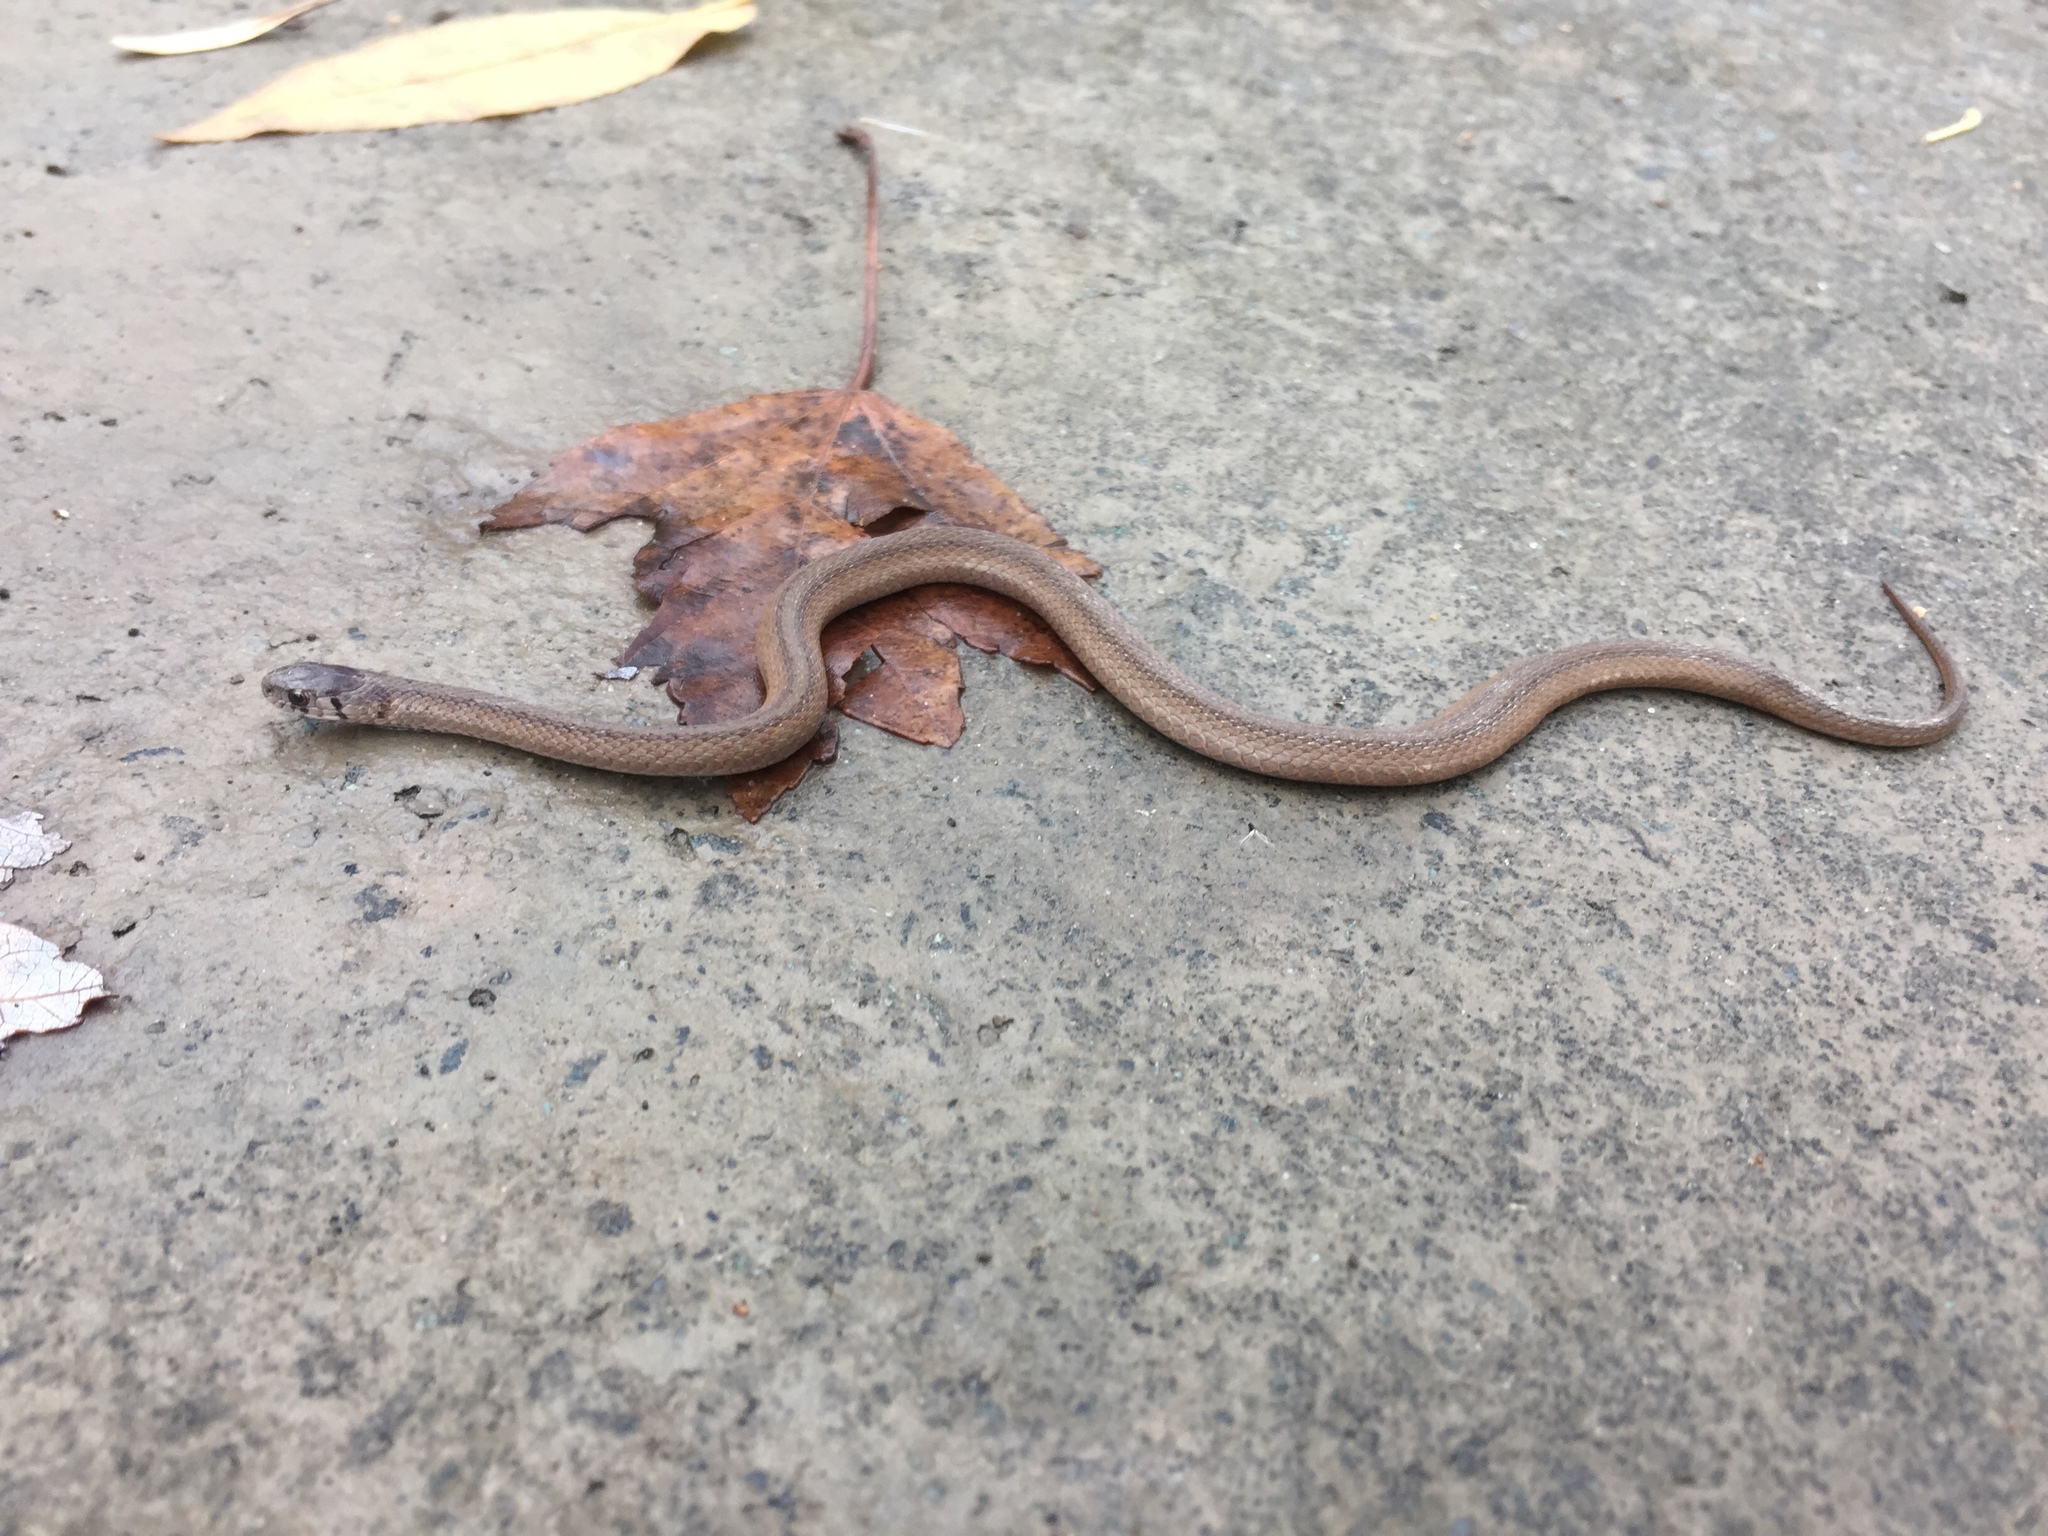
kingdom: Animalia
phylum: Chordata
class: Squamata
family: Colubridae
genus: Storeria
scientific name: Storeria dekayi
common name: (dekay’s) brown snake
